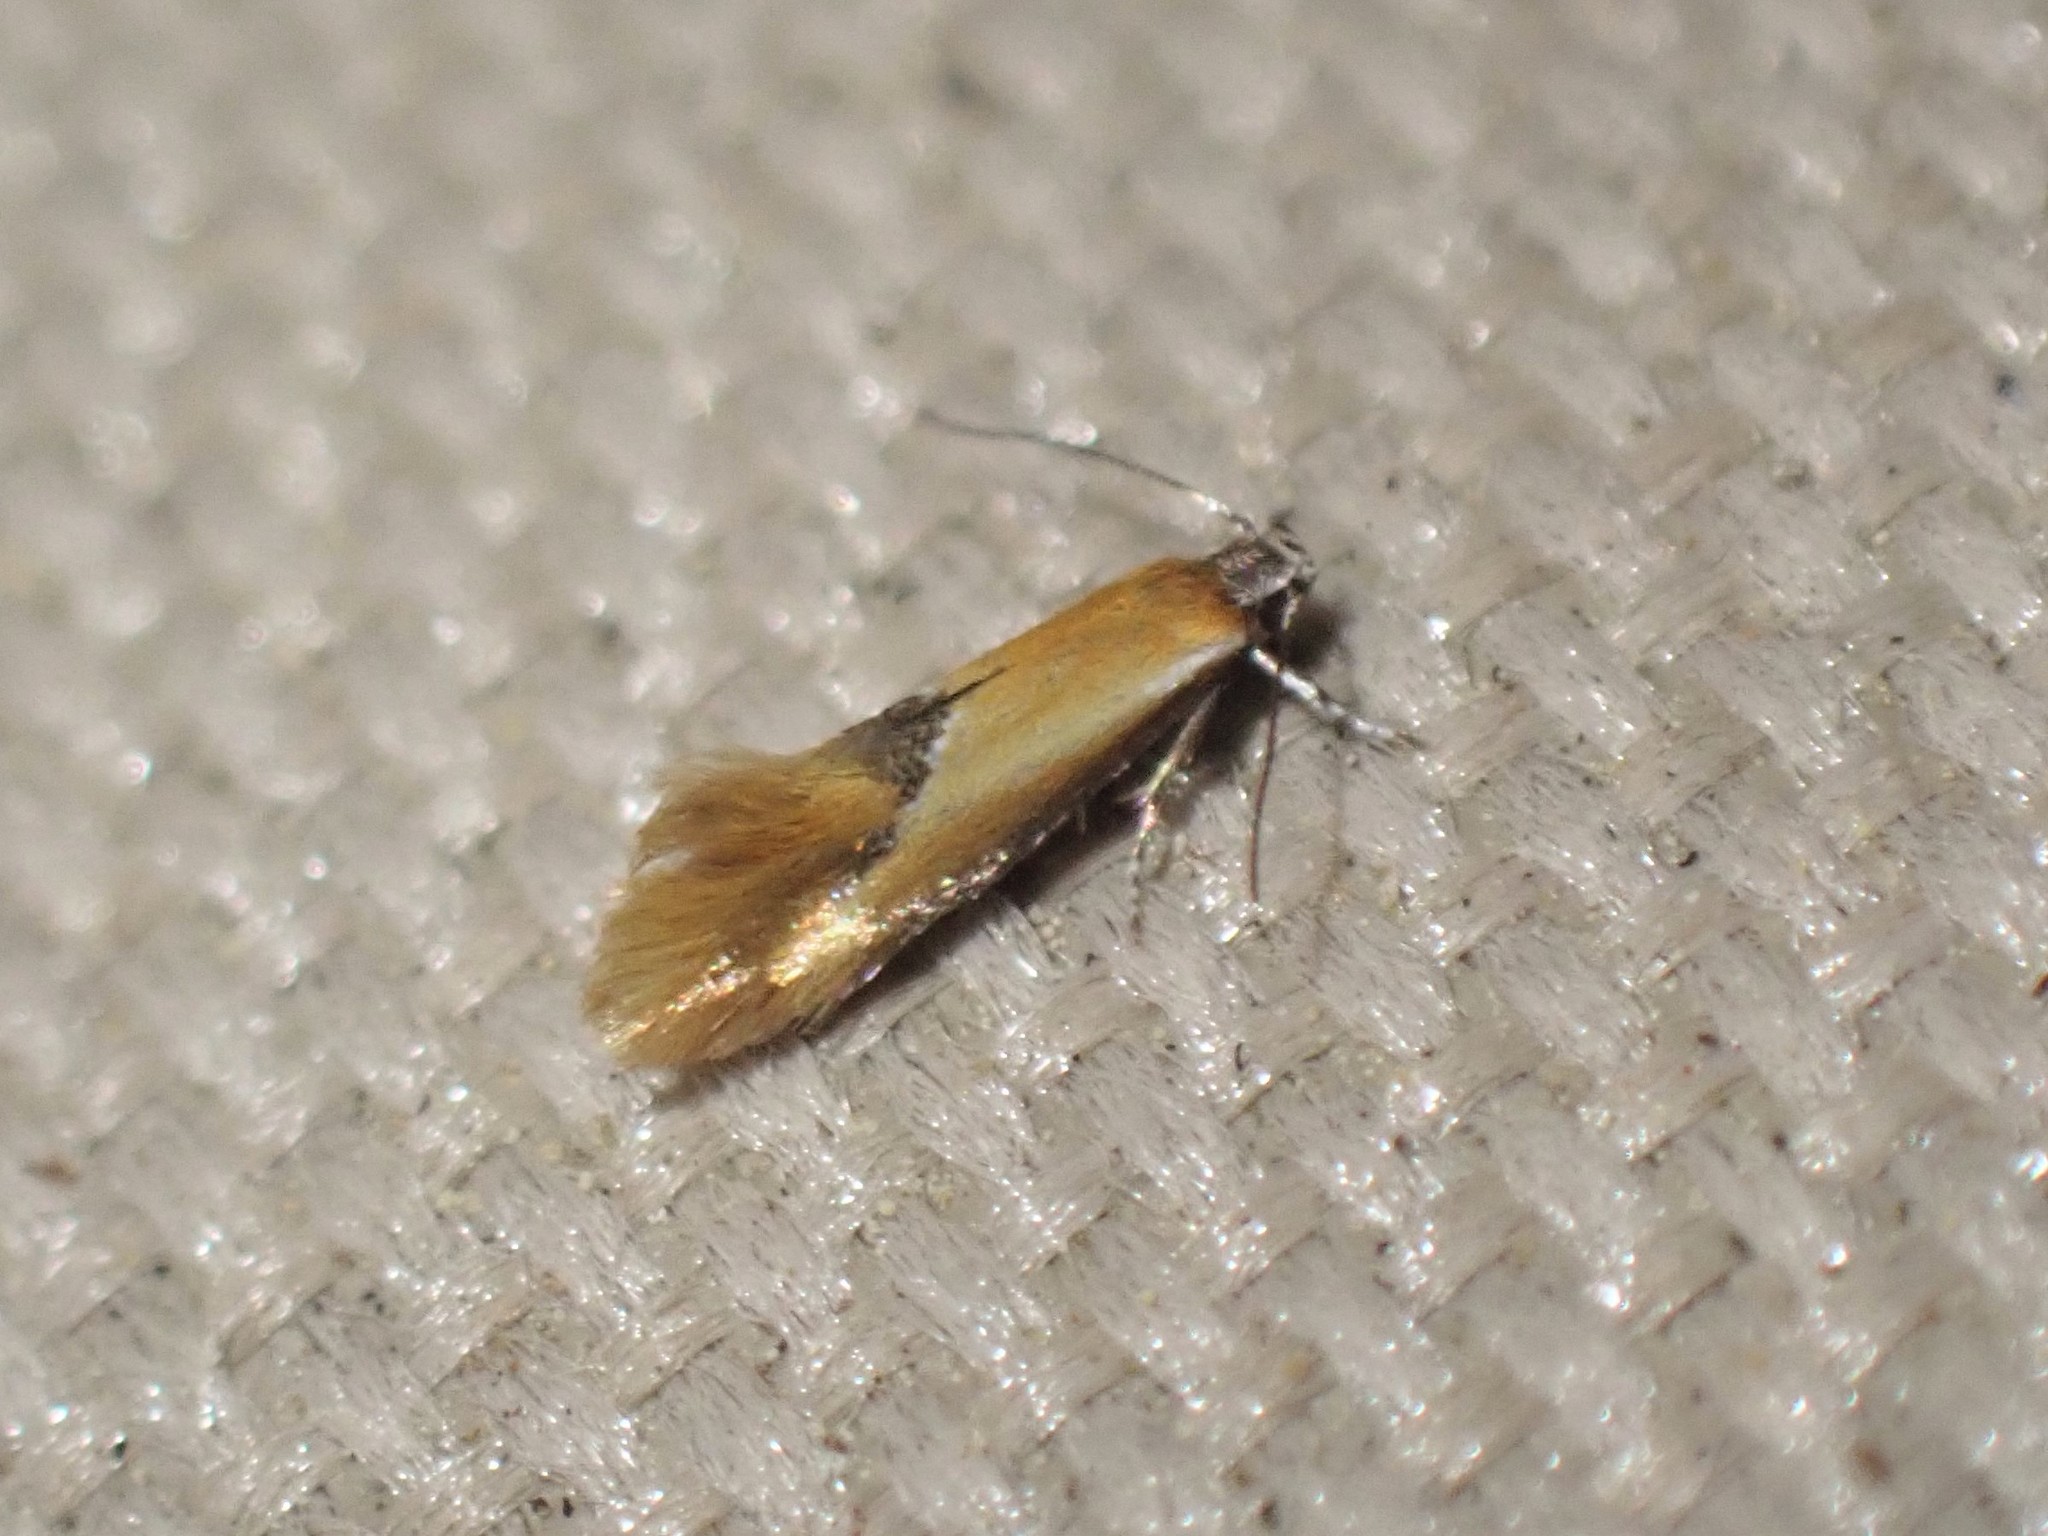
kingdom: Animalia
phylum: Arthropoda
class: Insecta
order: Lepidoptera
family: Oecophoridae
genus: Batia
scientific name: Batia lunaris
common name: Moth
